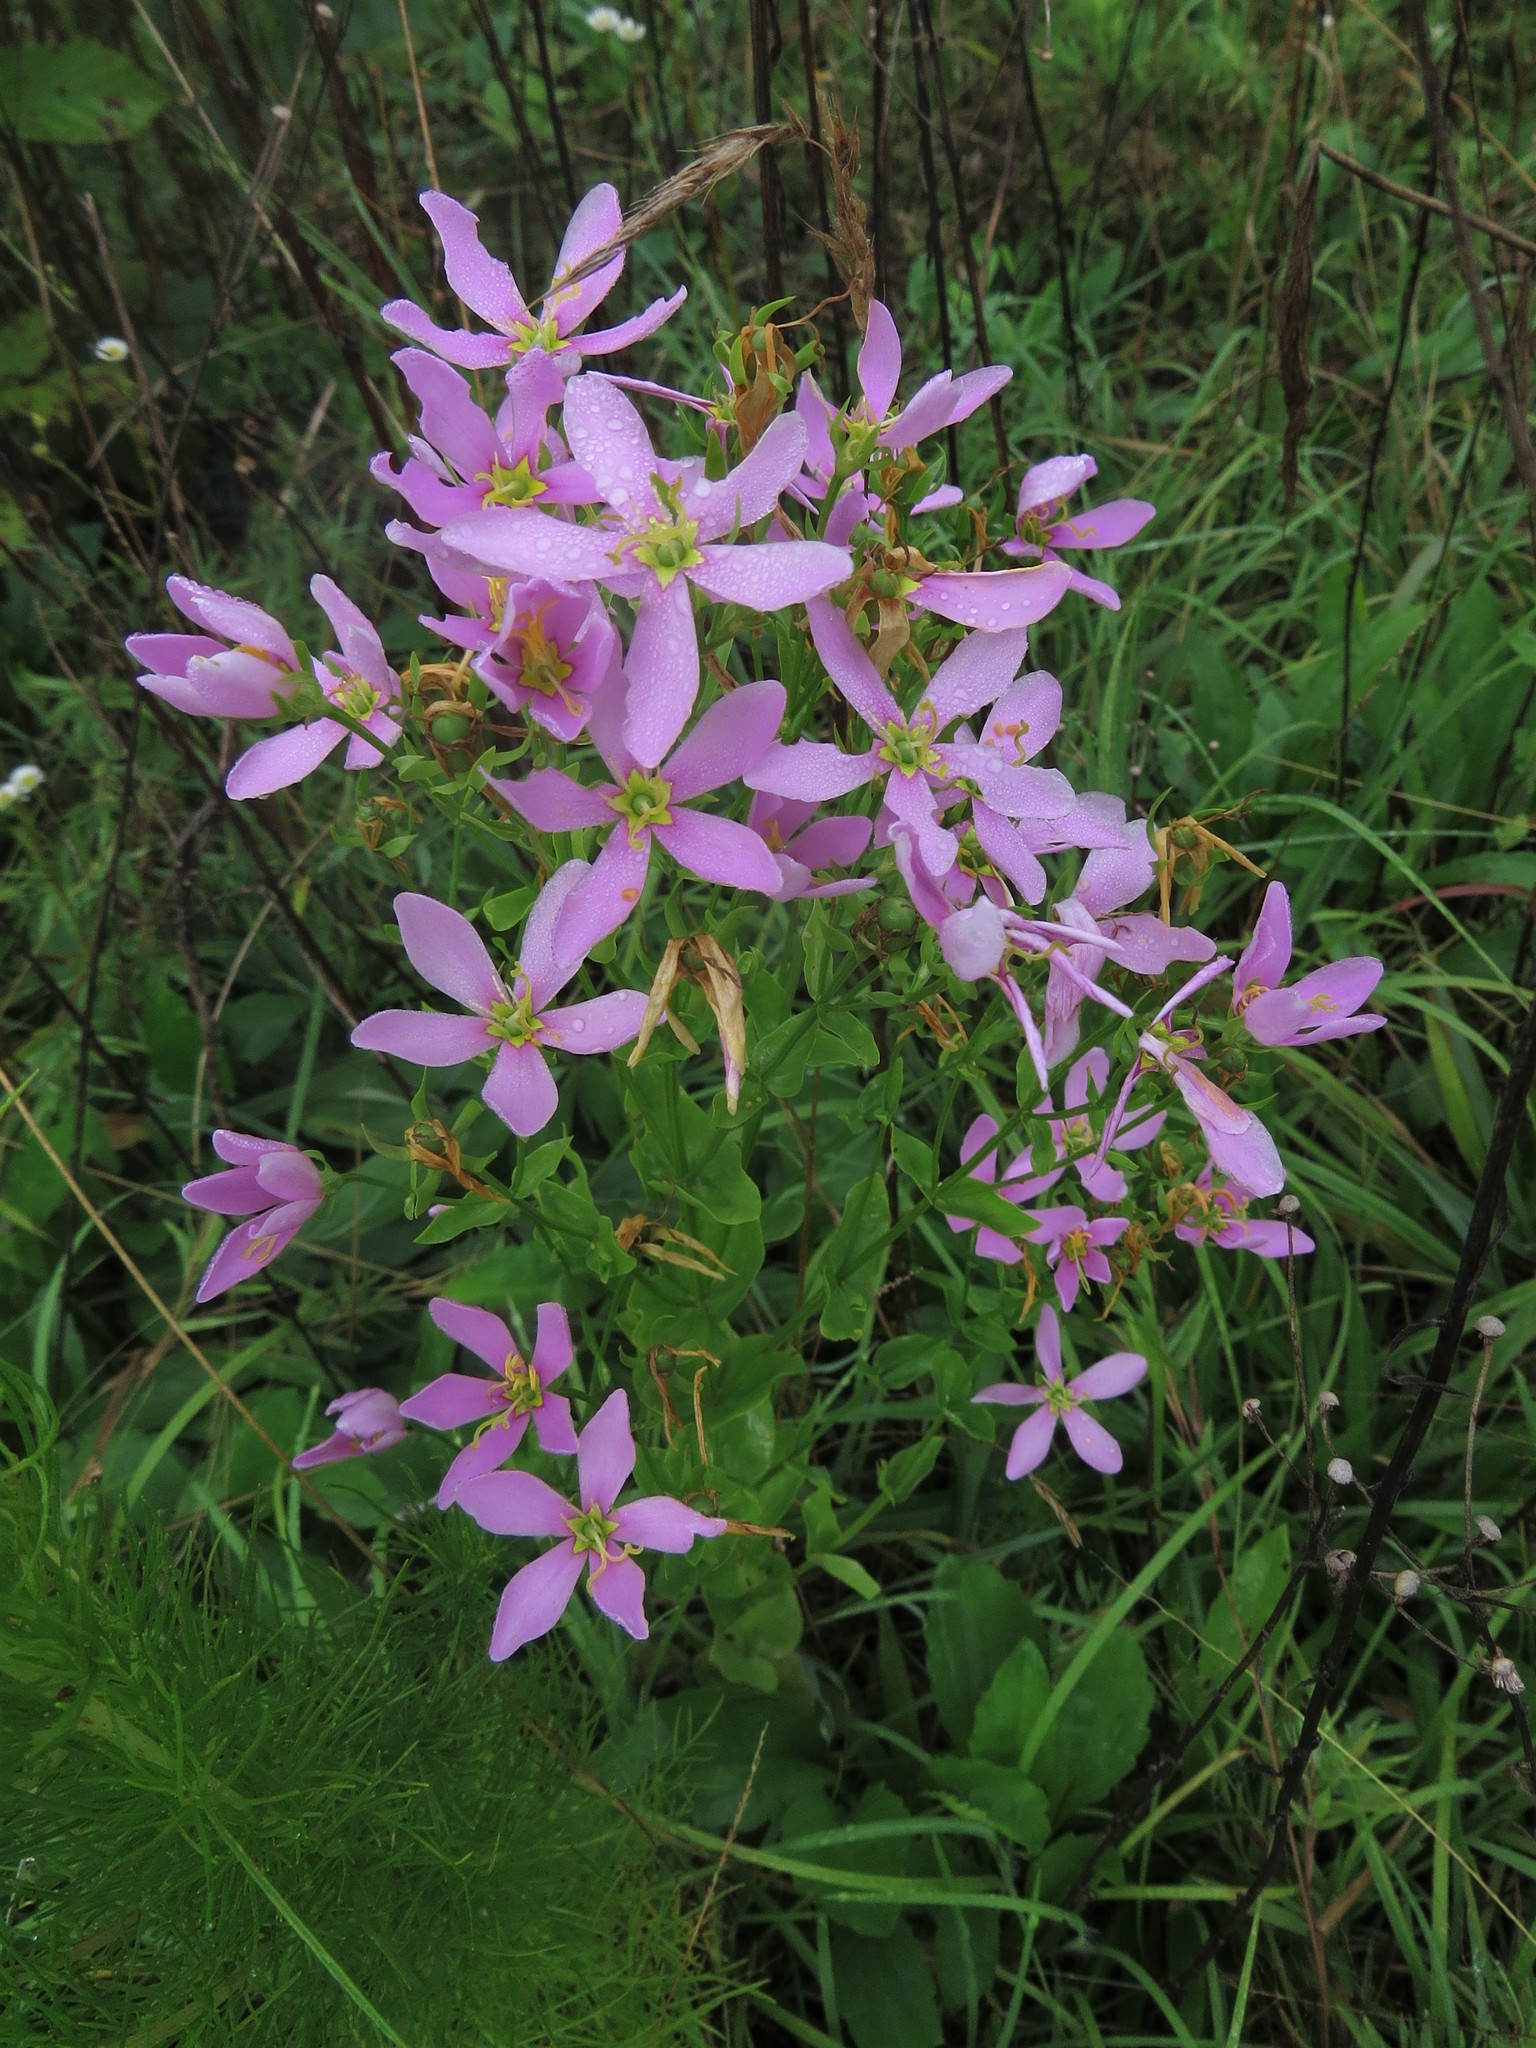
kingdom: Plantae
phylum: Tracheophyta
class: Magnoliopsida
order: Gentianales
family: Gentianaceae
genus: Sabatia
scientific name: Sabatia angularis
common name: Rose-pink
